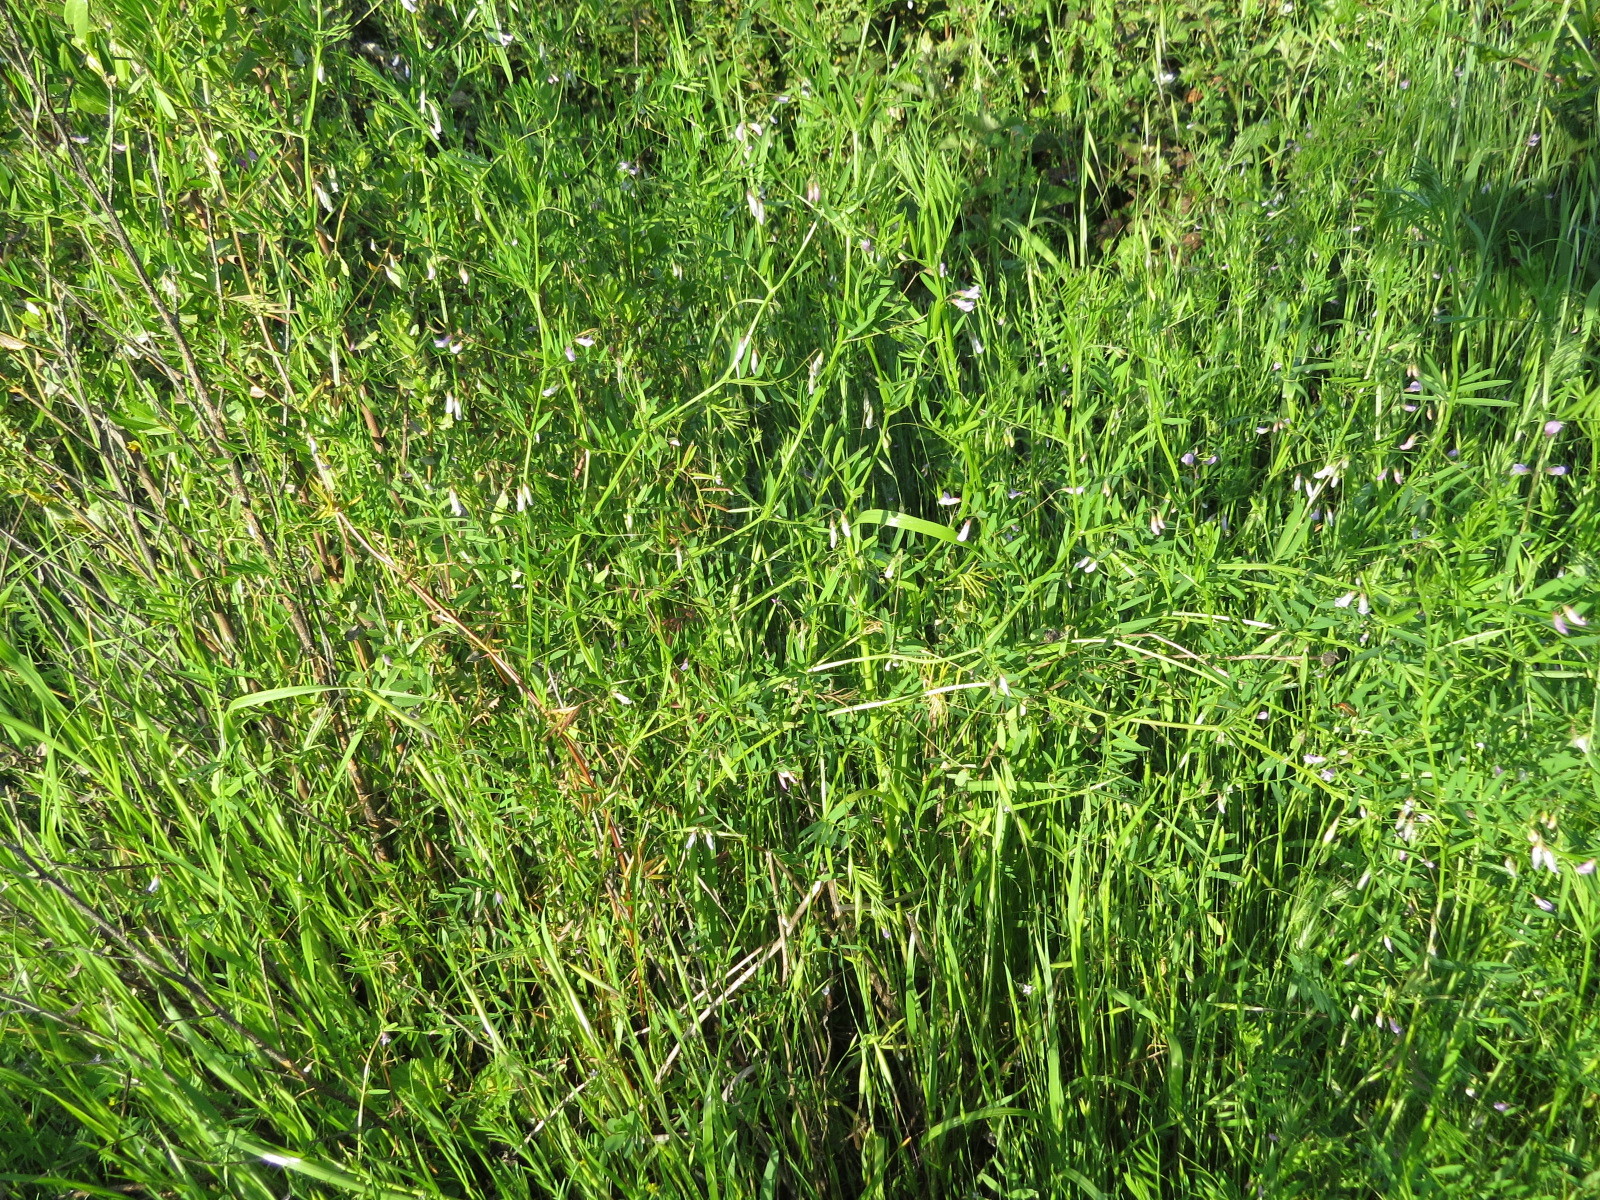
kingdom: Plantae
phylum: Tracheophyta
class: Magnoliopsida
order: Fabales
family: Fabaceae
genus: Vicia
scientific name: Vicia tetrasperma
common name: Smooth tare
